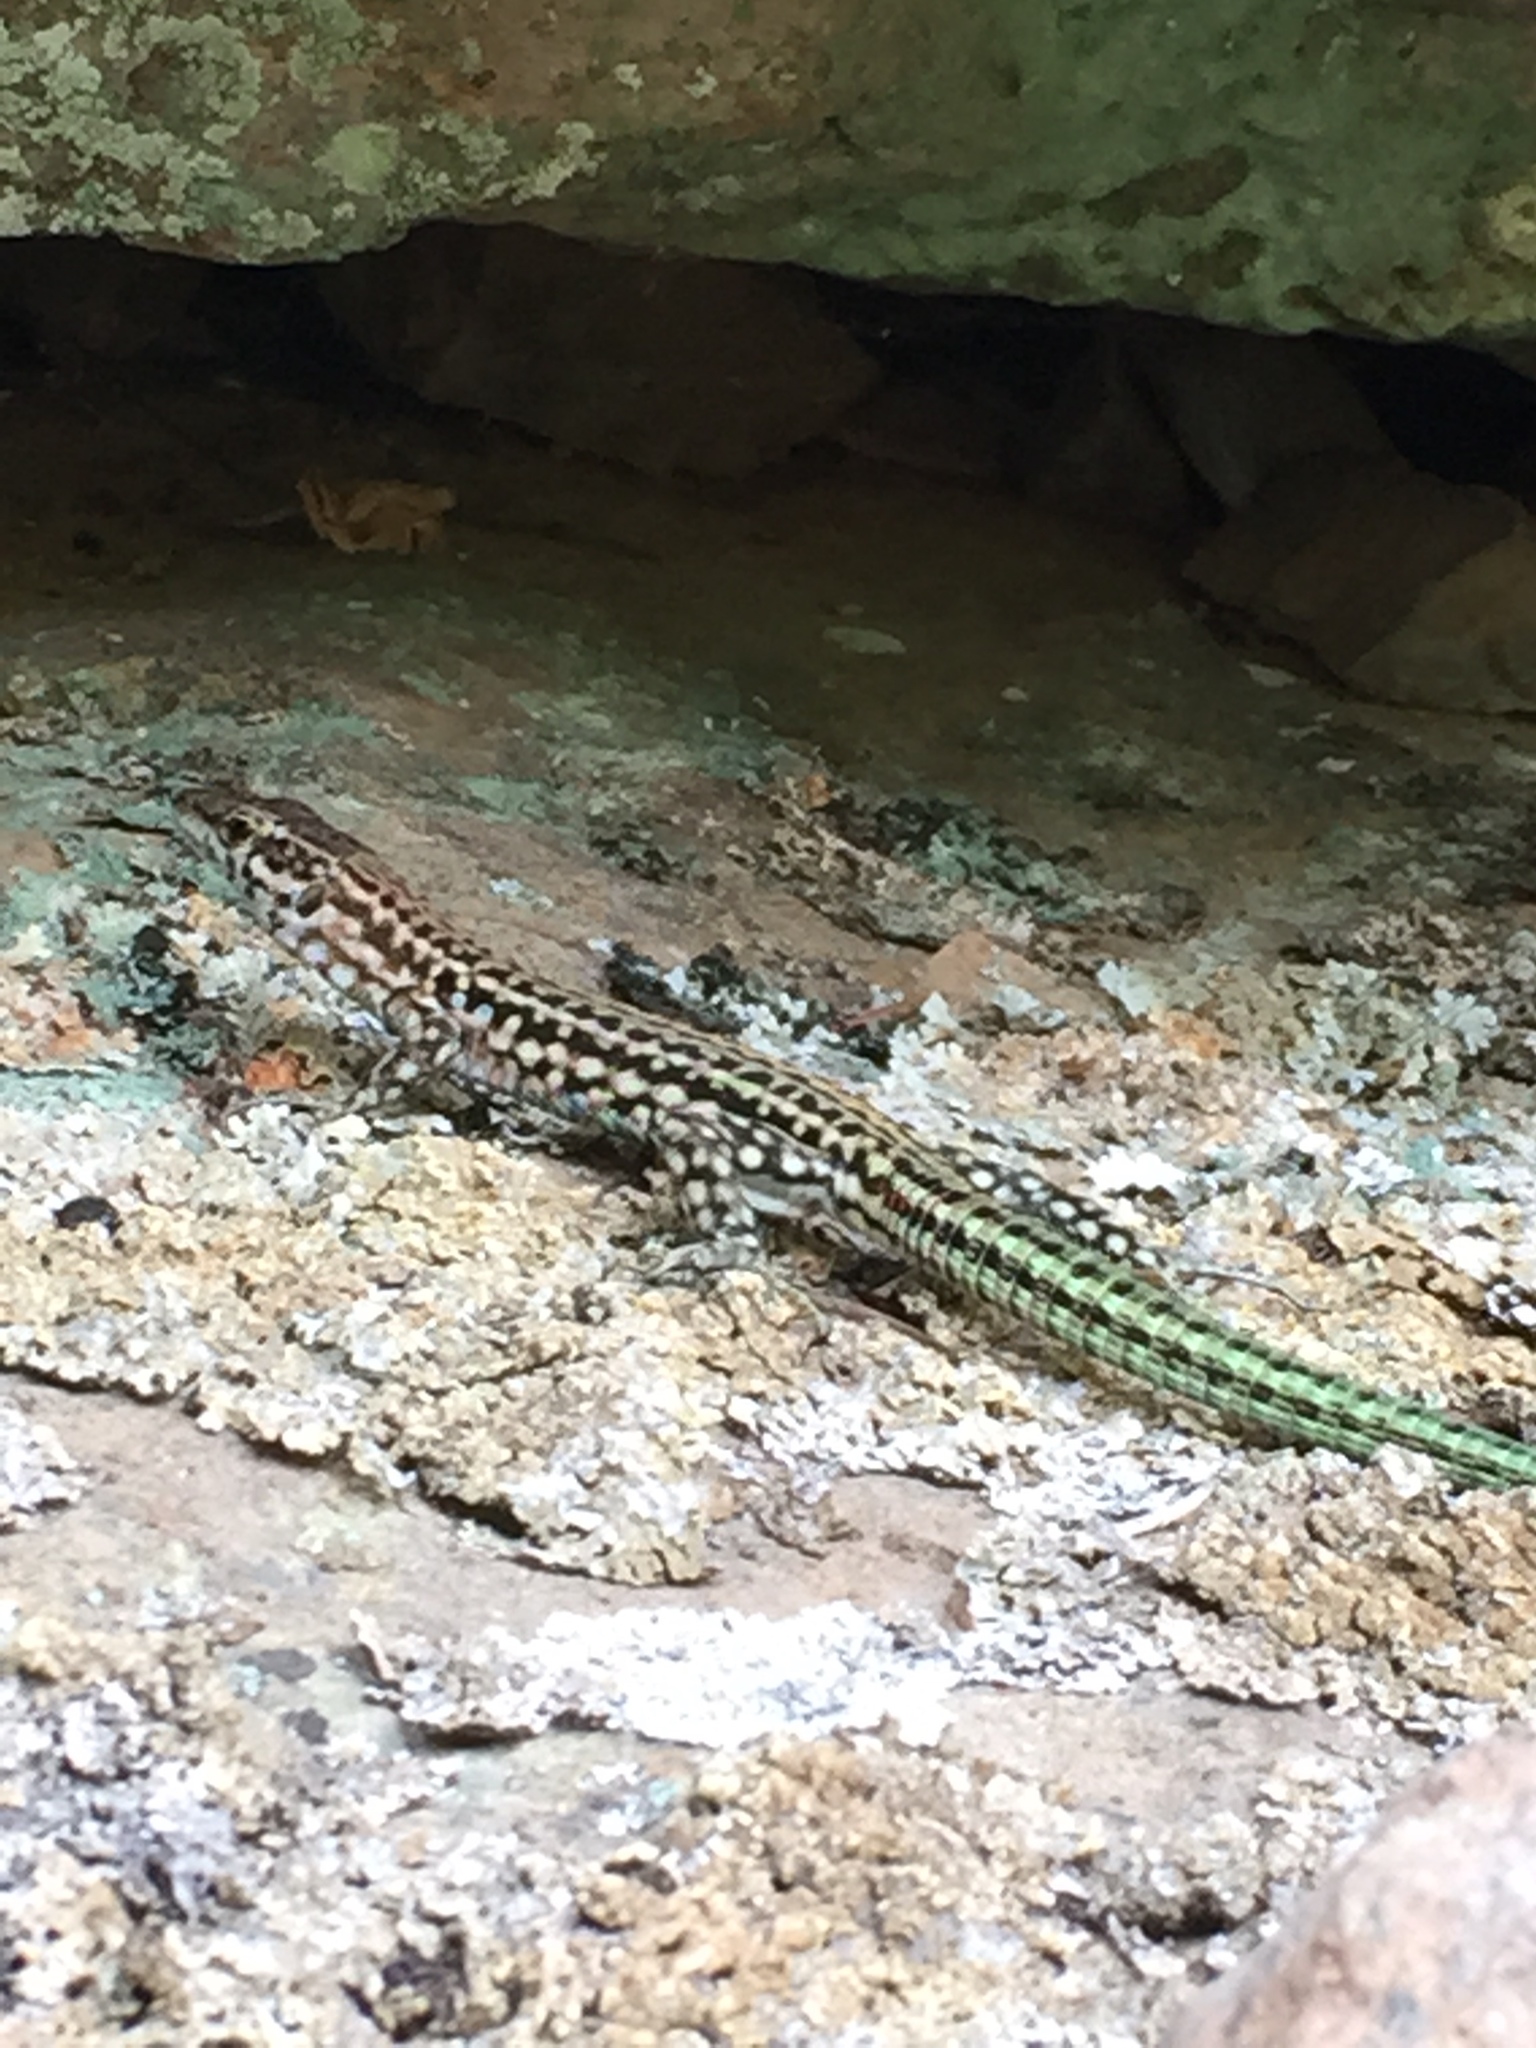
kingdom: Animalia
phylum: Chordata
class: Squamata
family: Lacertidae
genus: Podarcis
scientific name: Podarcis tiliguerta
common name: Tyrrhenian wall lizard
